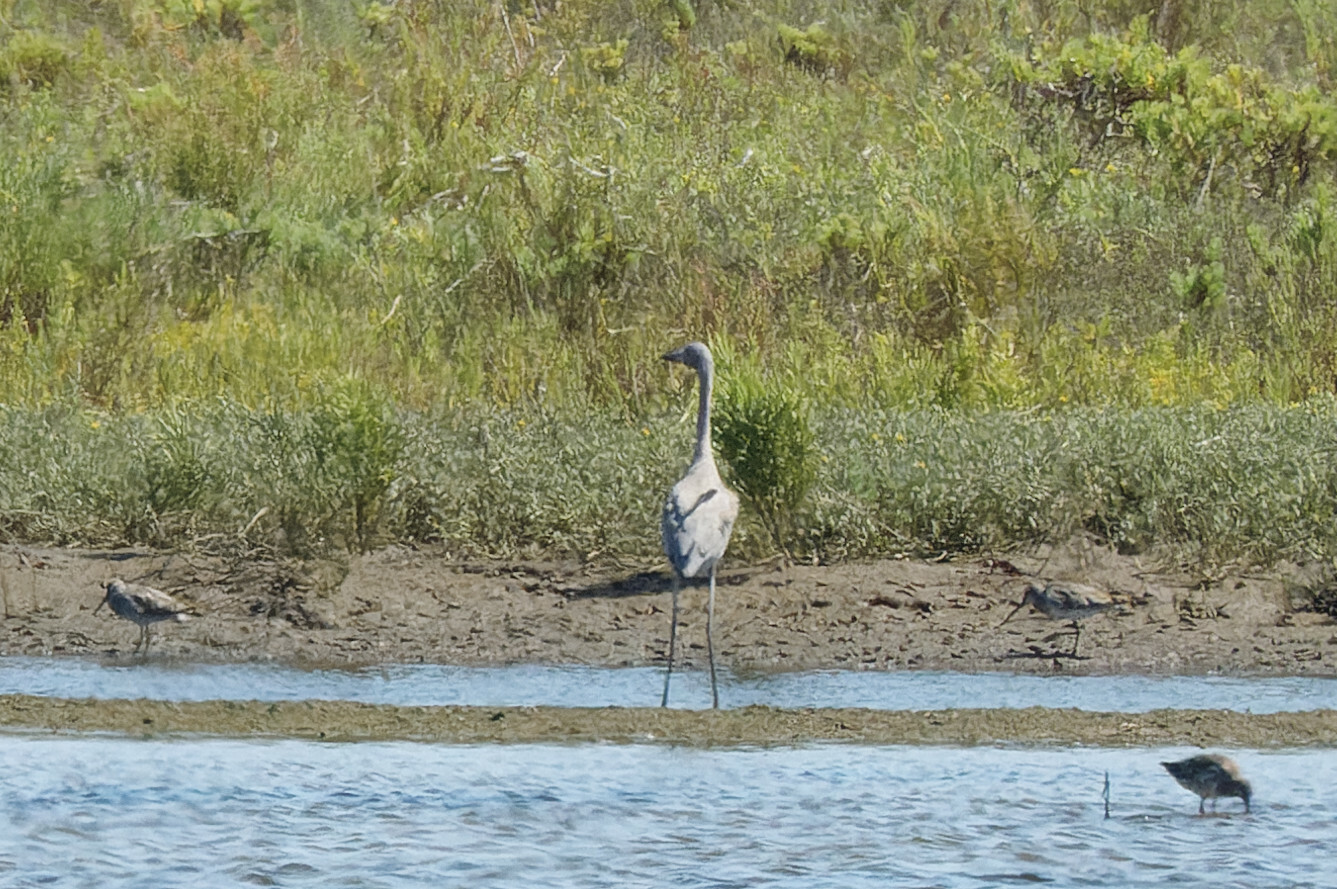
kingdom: Animalia
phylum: Chordata
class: Aves
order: Pelecaniformes
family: Ardeidae
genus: Egretta
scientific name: Egretta rufescens
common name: Reddish egret
